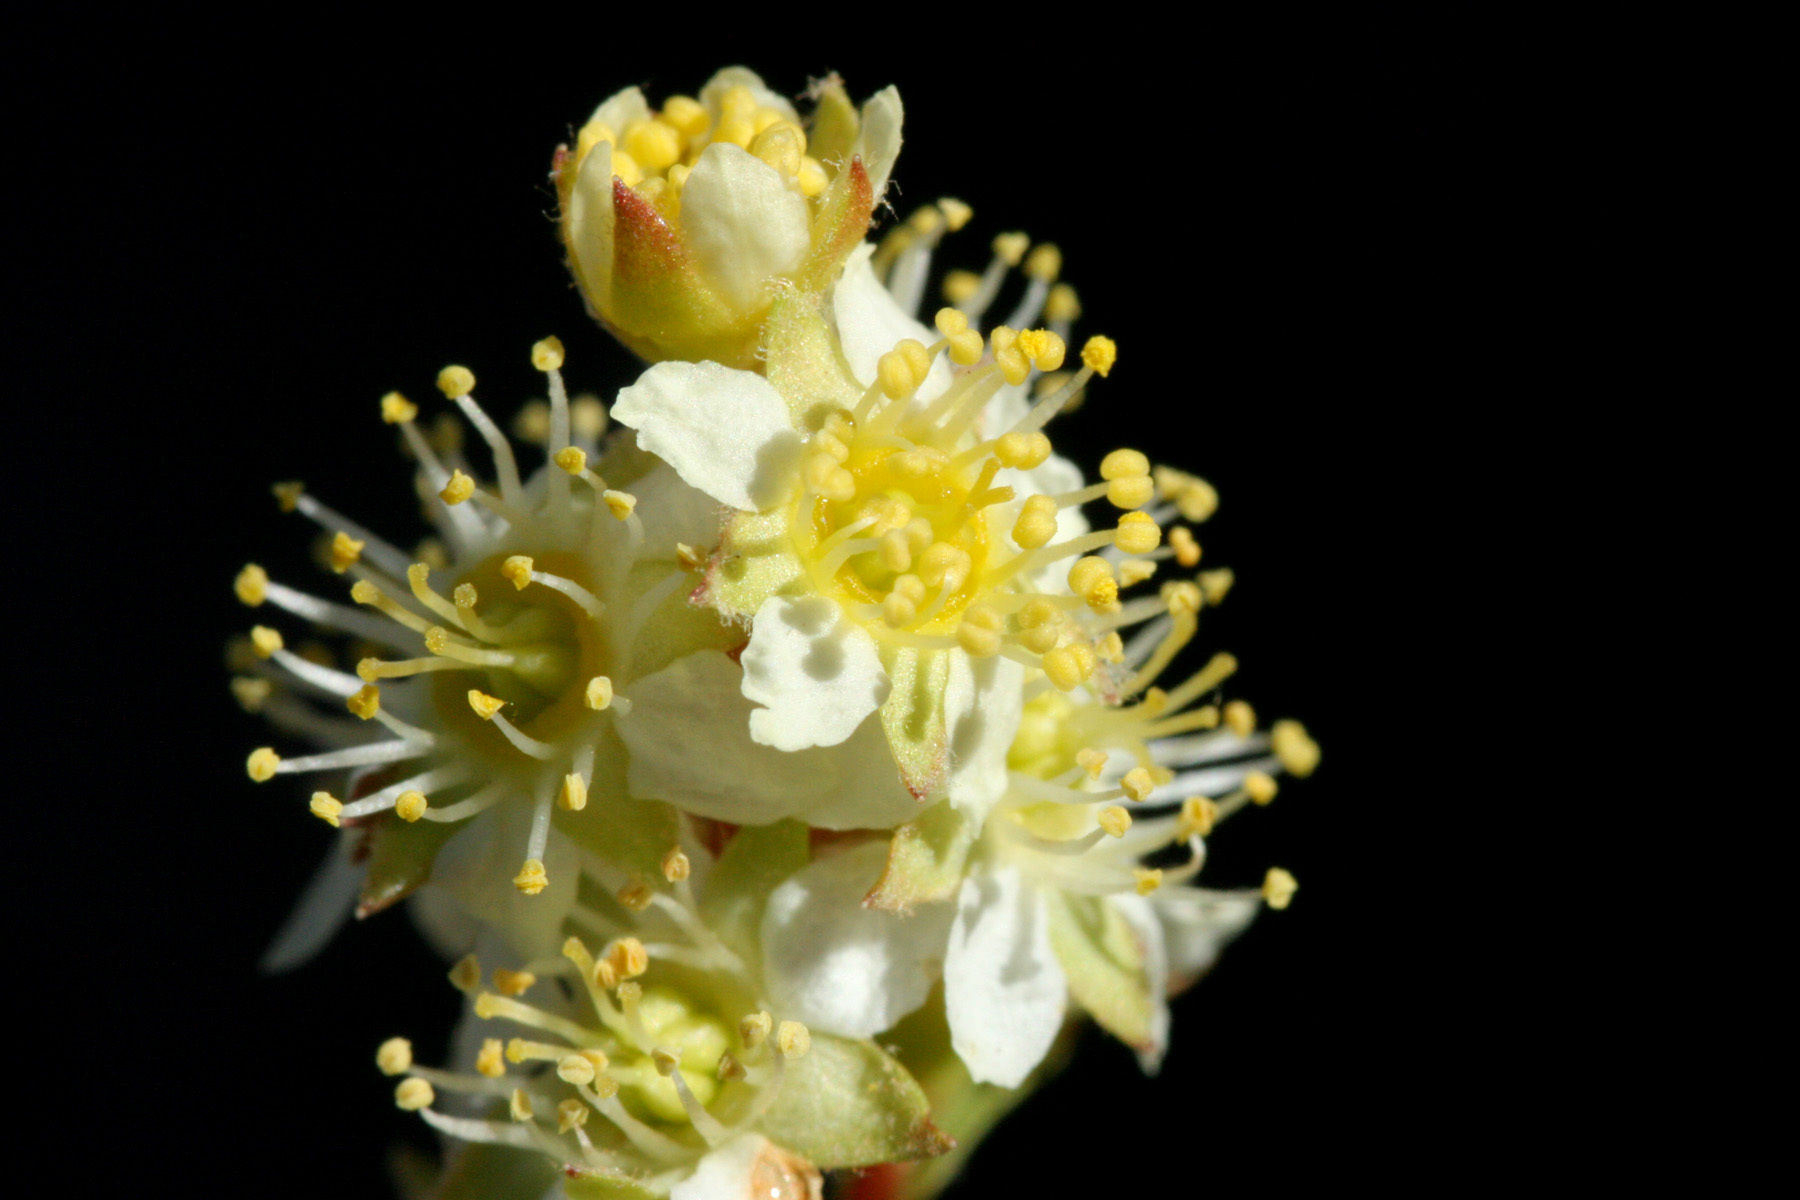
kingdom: Plantae
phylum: Tracheophyta
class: Magnoliopsida
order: Rosales
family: Rosaceae
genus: Luetkea
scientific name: Luetkea pectinata
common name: Partridgefoot
